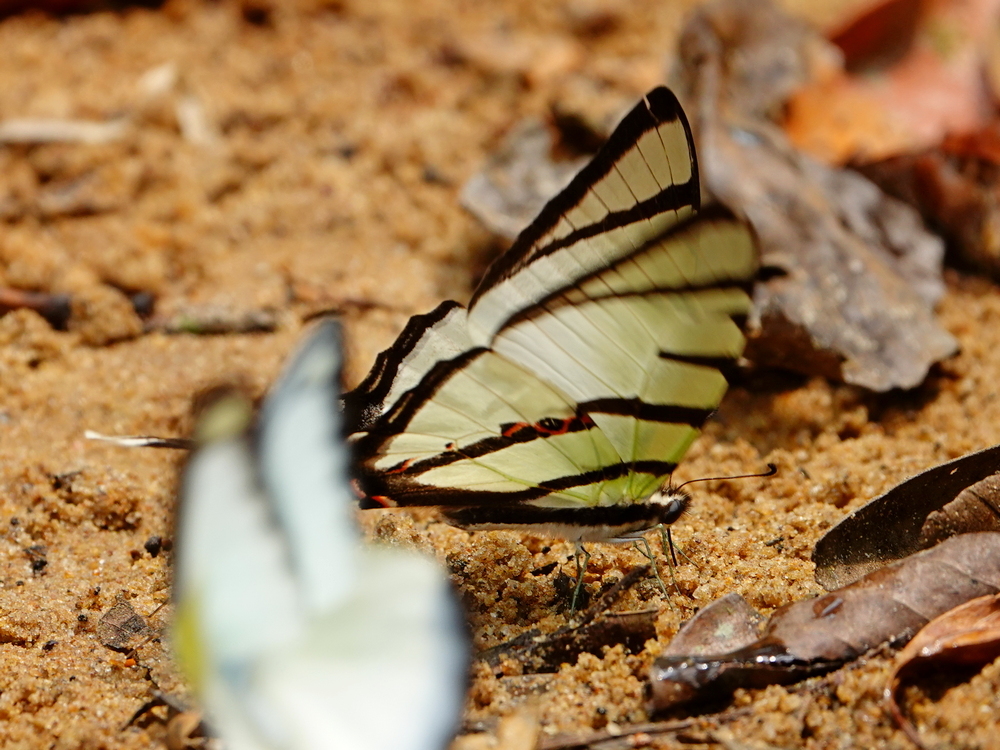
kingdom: Animalia
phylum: Arthropoda
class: Insecta
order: Lepidoptera
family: Papilionidae
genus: Graphium
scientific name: Graphium agetes
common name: Fourbar swordtail
